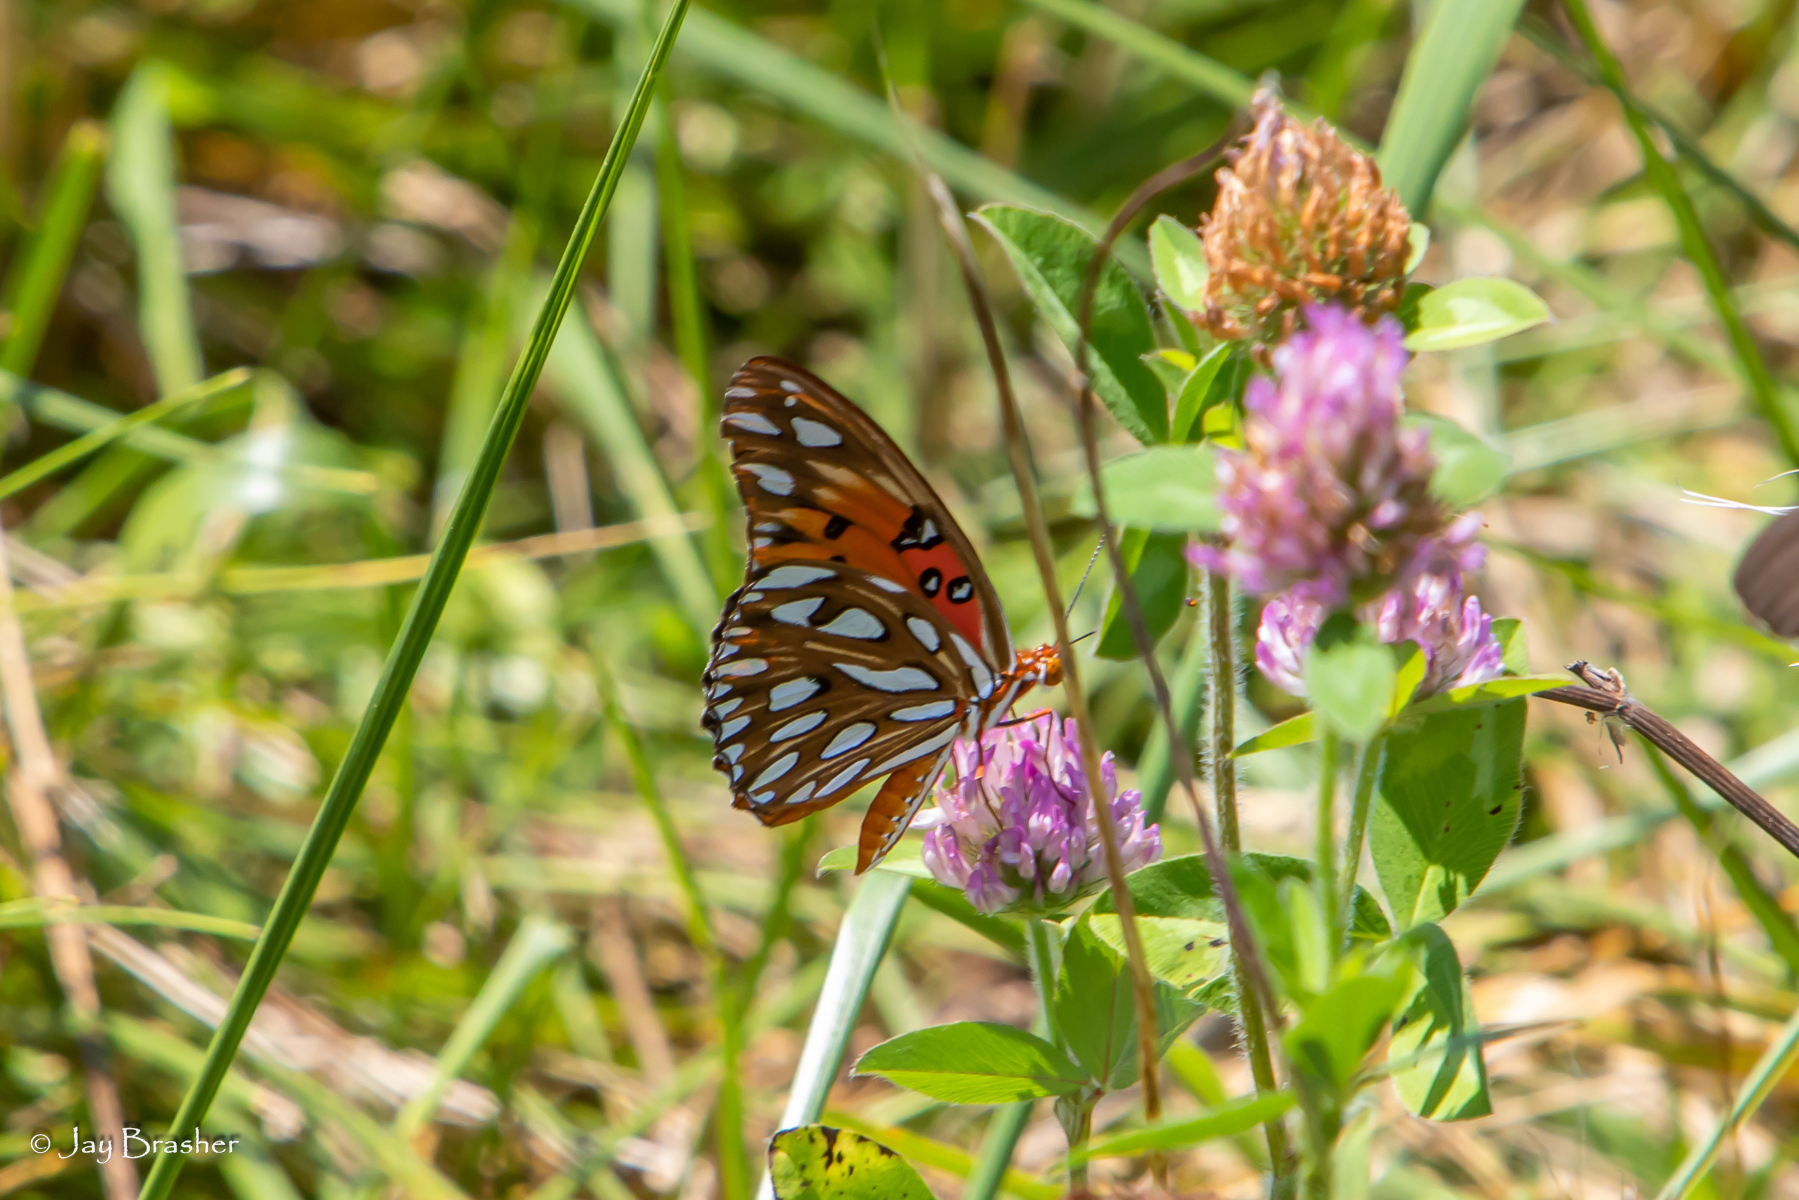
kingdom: Animalia
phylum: Arthropoda
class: Insecta
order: Lepidoptera
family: Nymphalidae
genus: Dione
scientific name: Dione vanillae
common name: Gulf fritillary
